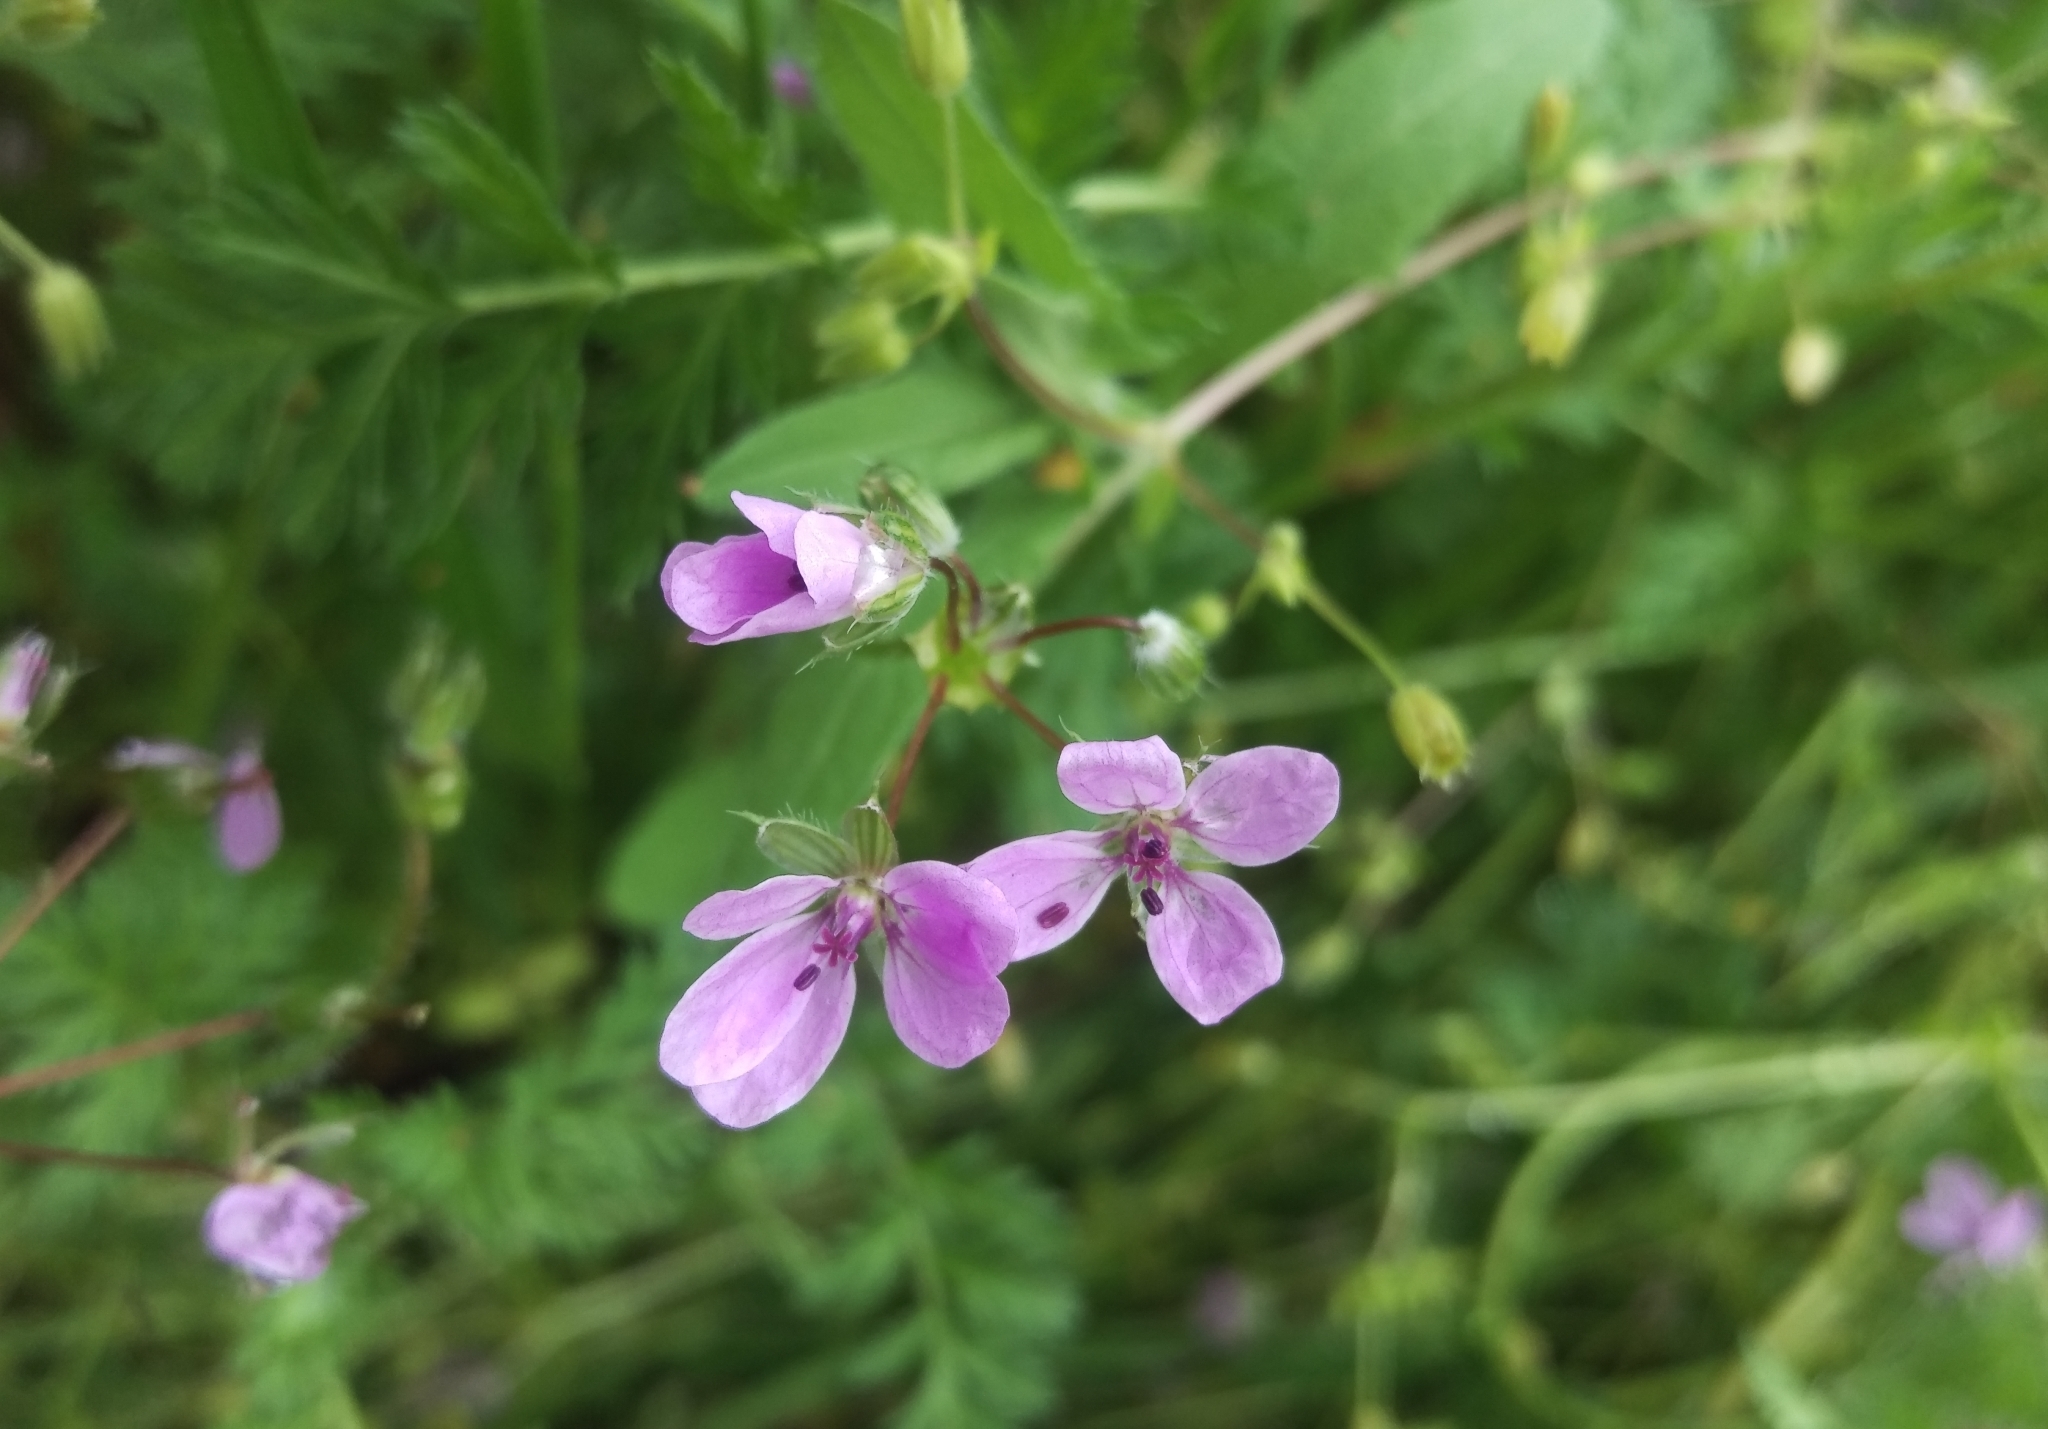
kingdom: Plantae
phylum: Tracheophyta
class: Magnoliopsida
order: Geraniales
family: Geraniaceae
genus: Erodium
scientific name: Erodium cicutarium
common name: Common stork's-bill
